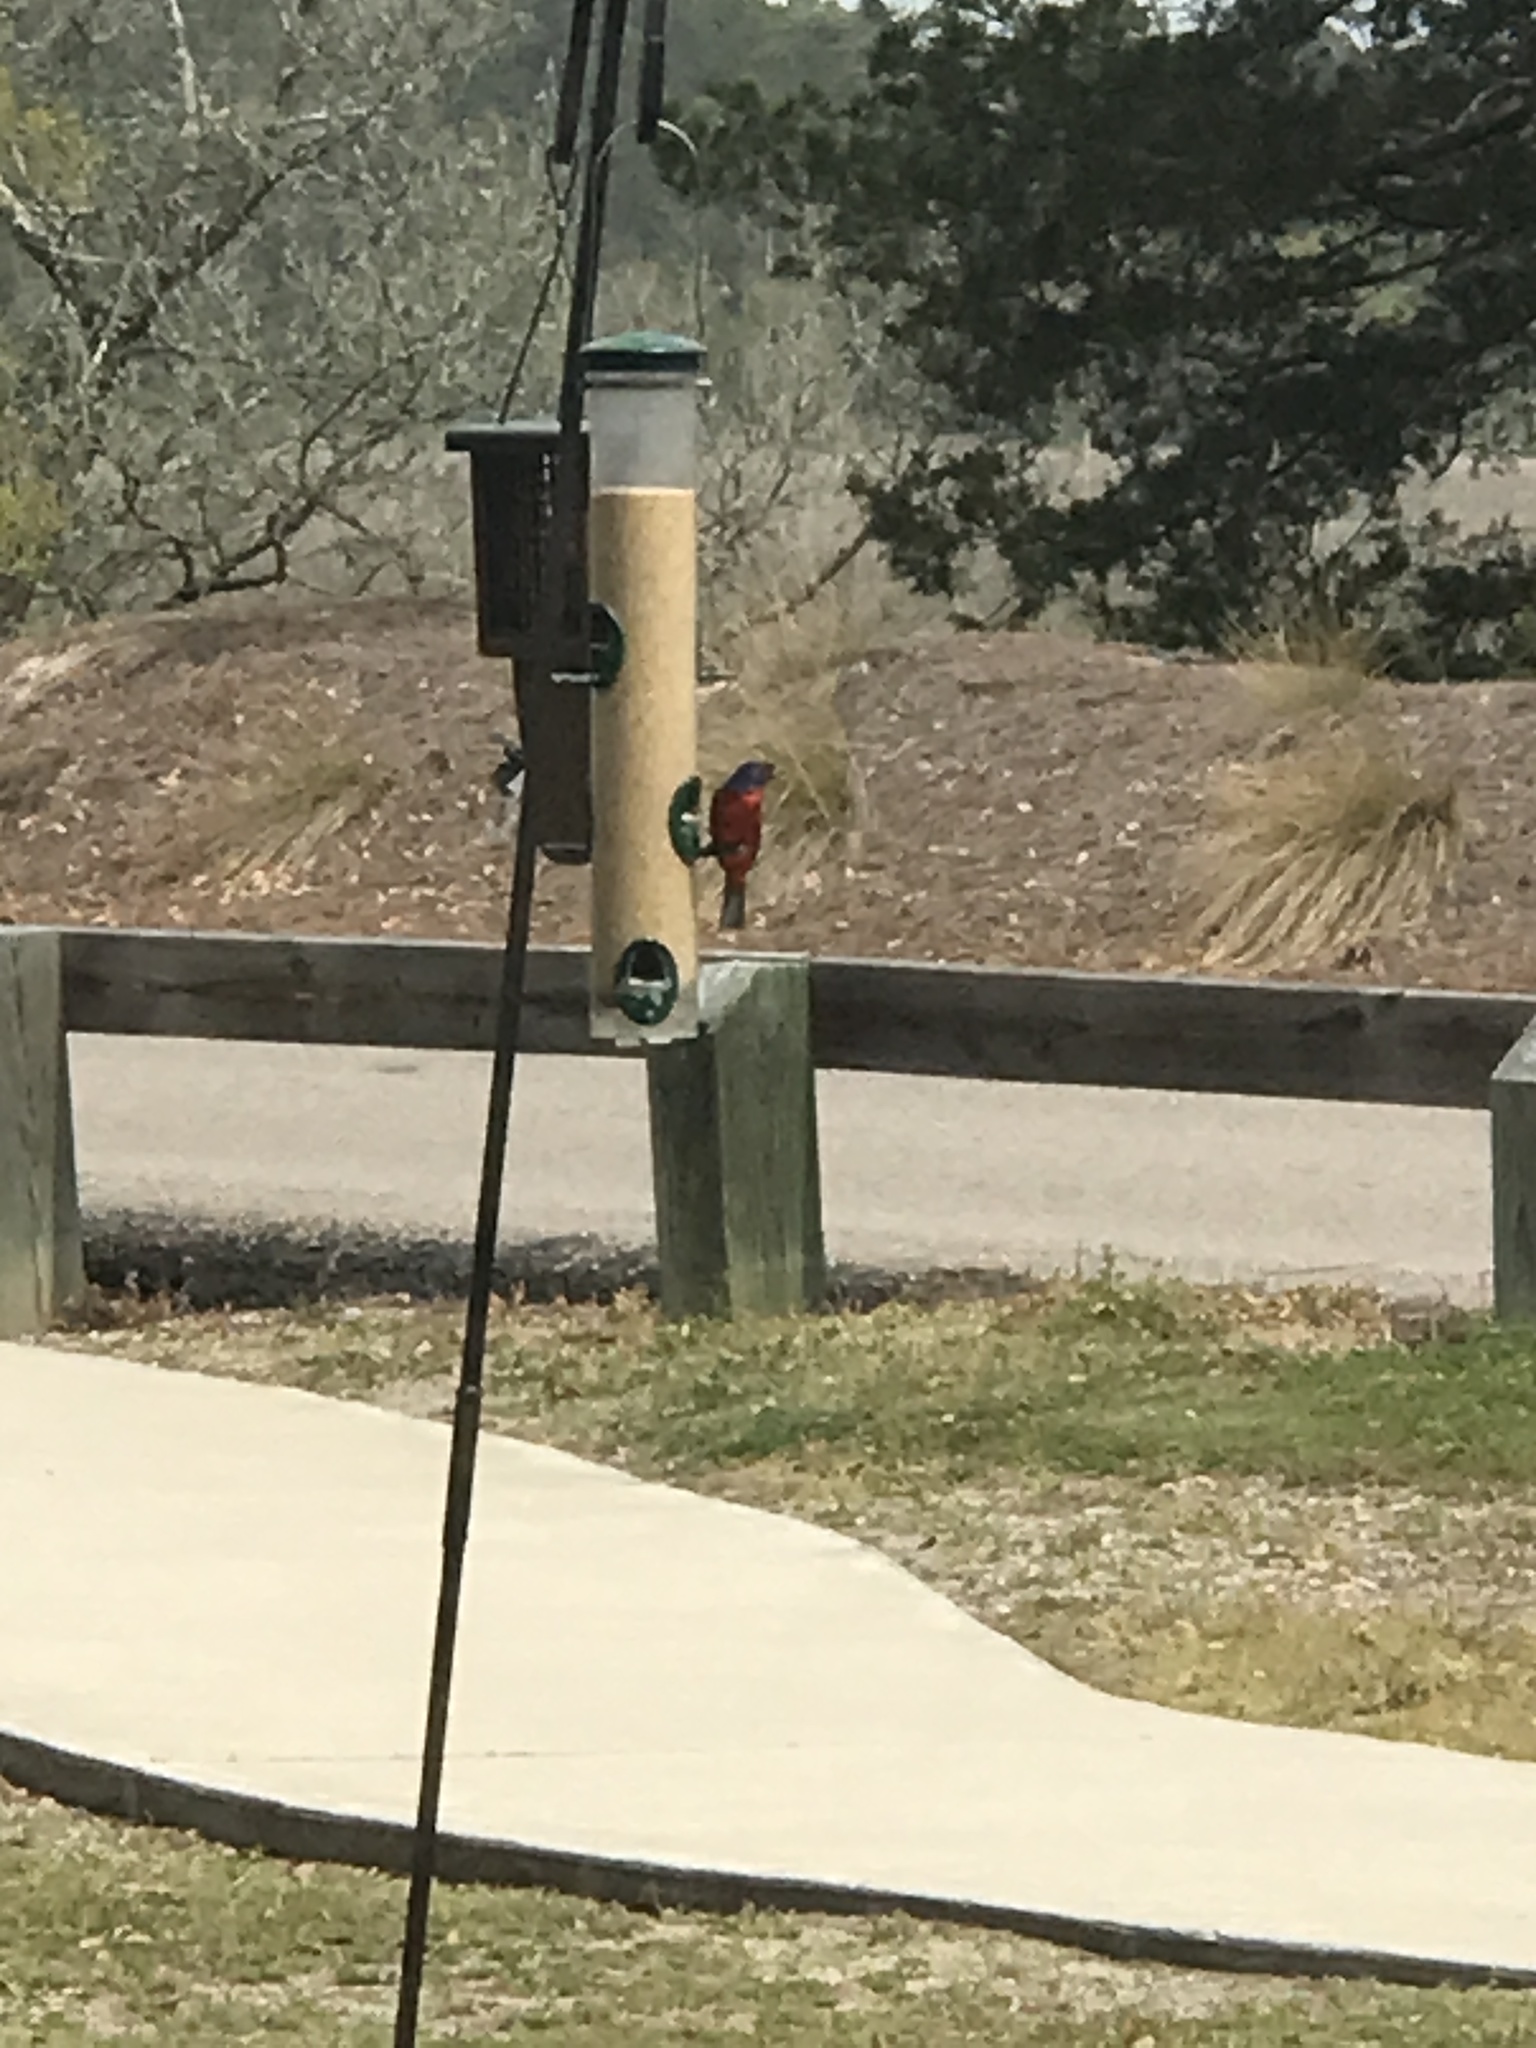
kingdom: Animalia
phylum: Chordata
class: Aves
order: Passeriformes
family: Cardinalidae
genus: Passerina
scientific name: Passerina ciris
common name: Painted bunting
